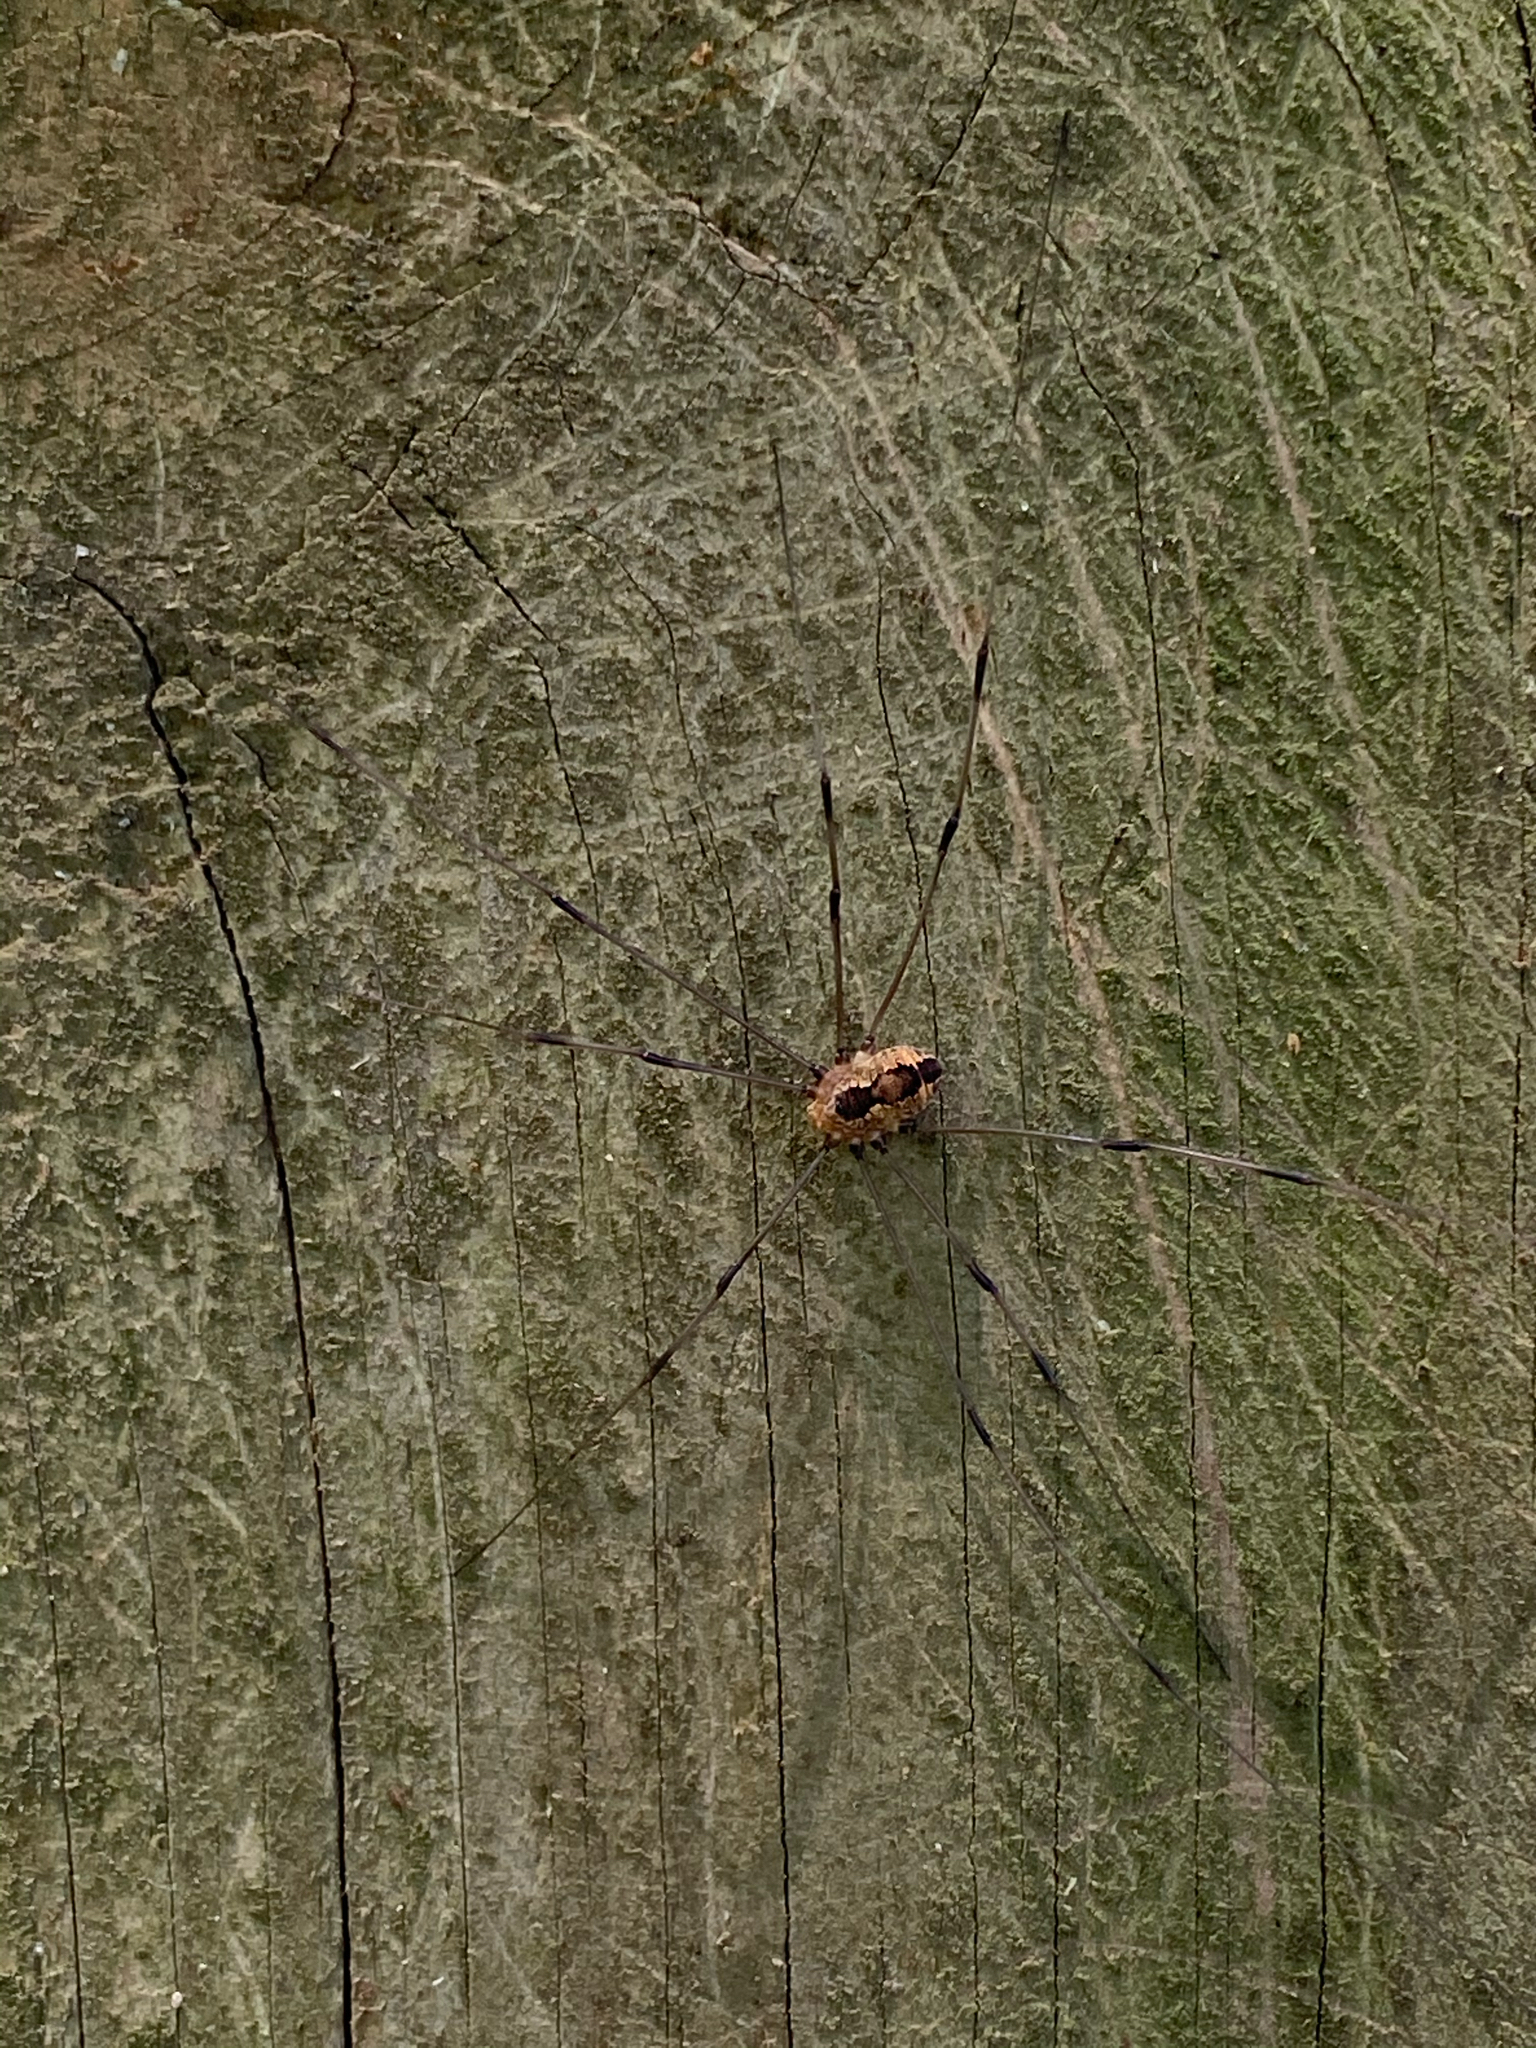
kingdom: Animalia
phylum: Arthropoda
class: Arachnida
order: Opiliones
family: Sclerosomatidae
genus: Leiobunum
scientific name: Leiobunum vittatum
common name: Eastern harvestman
